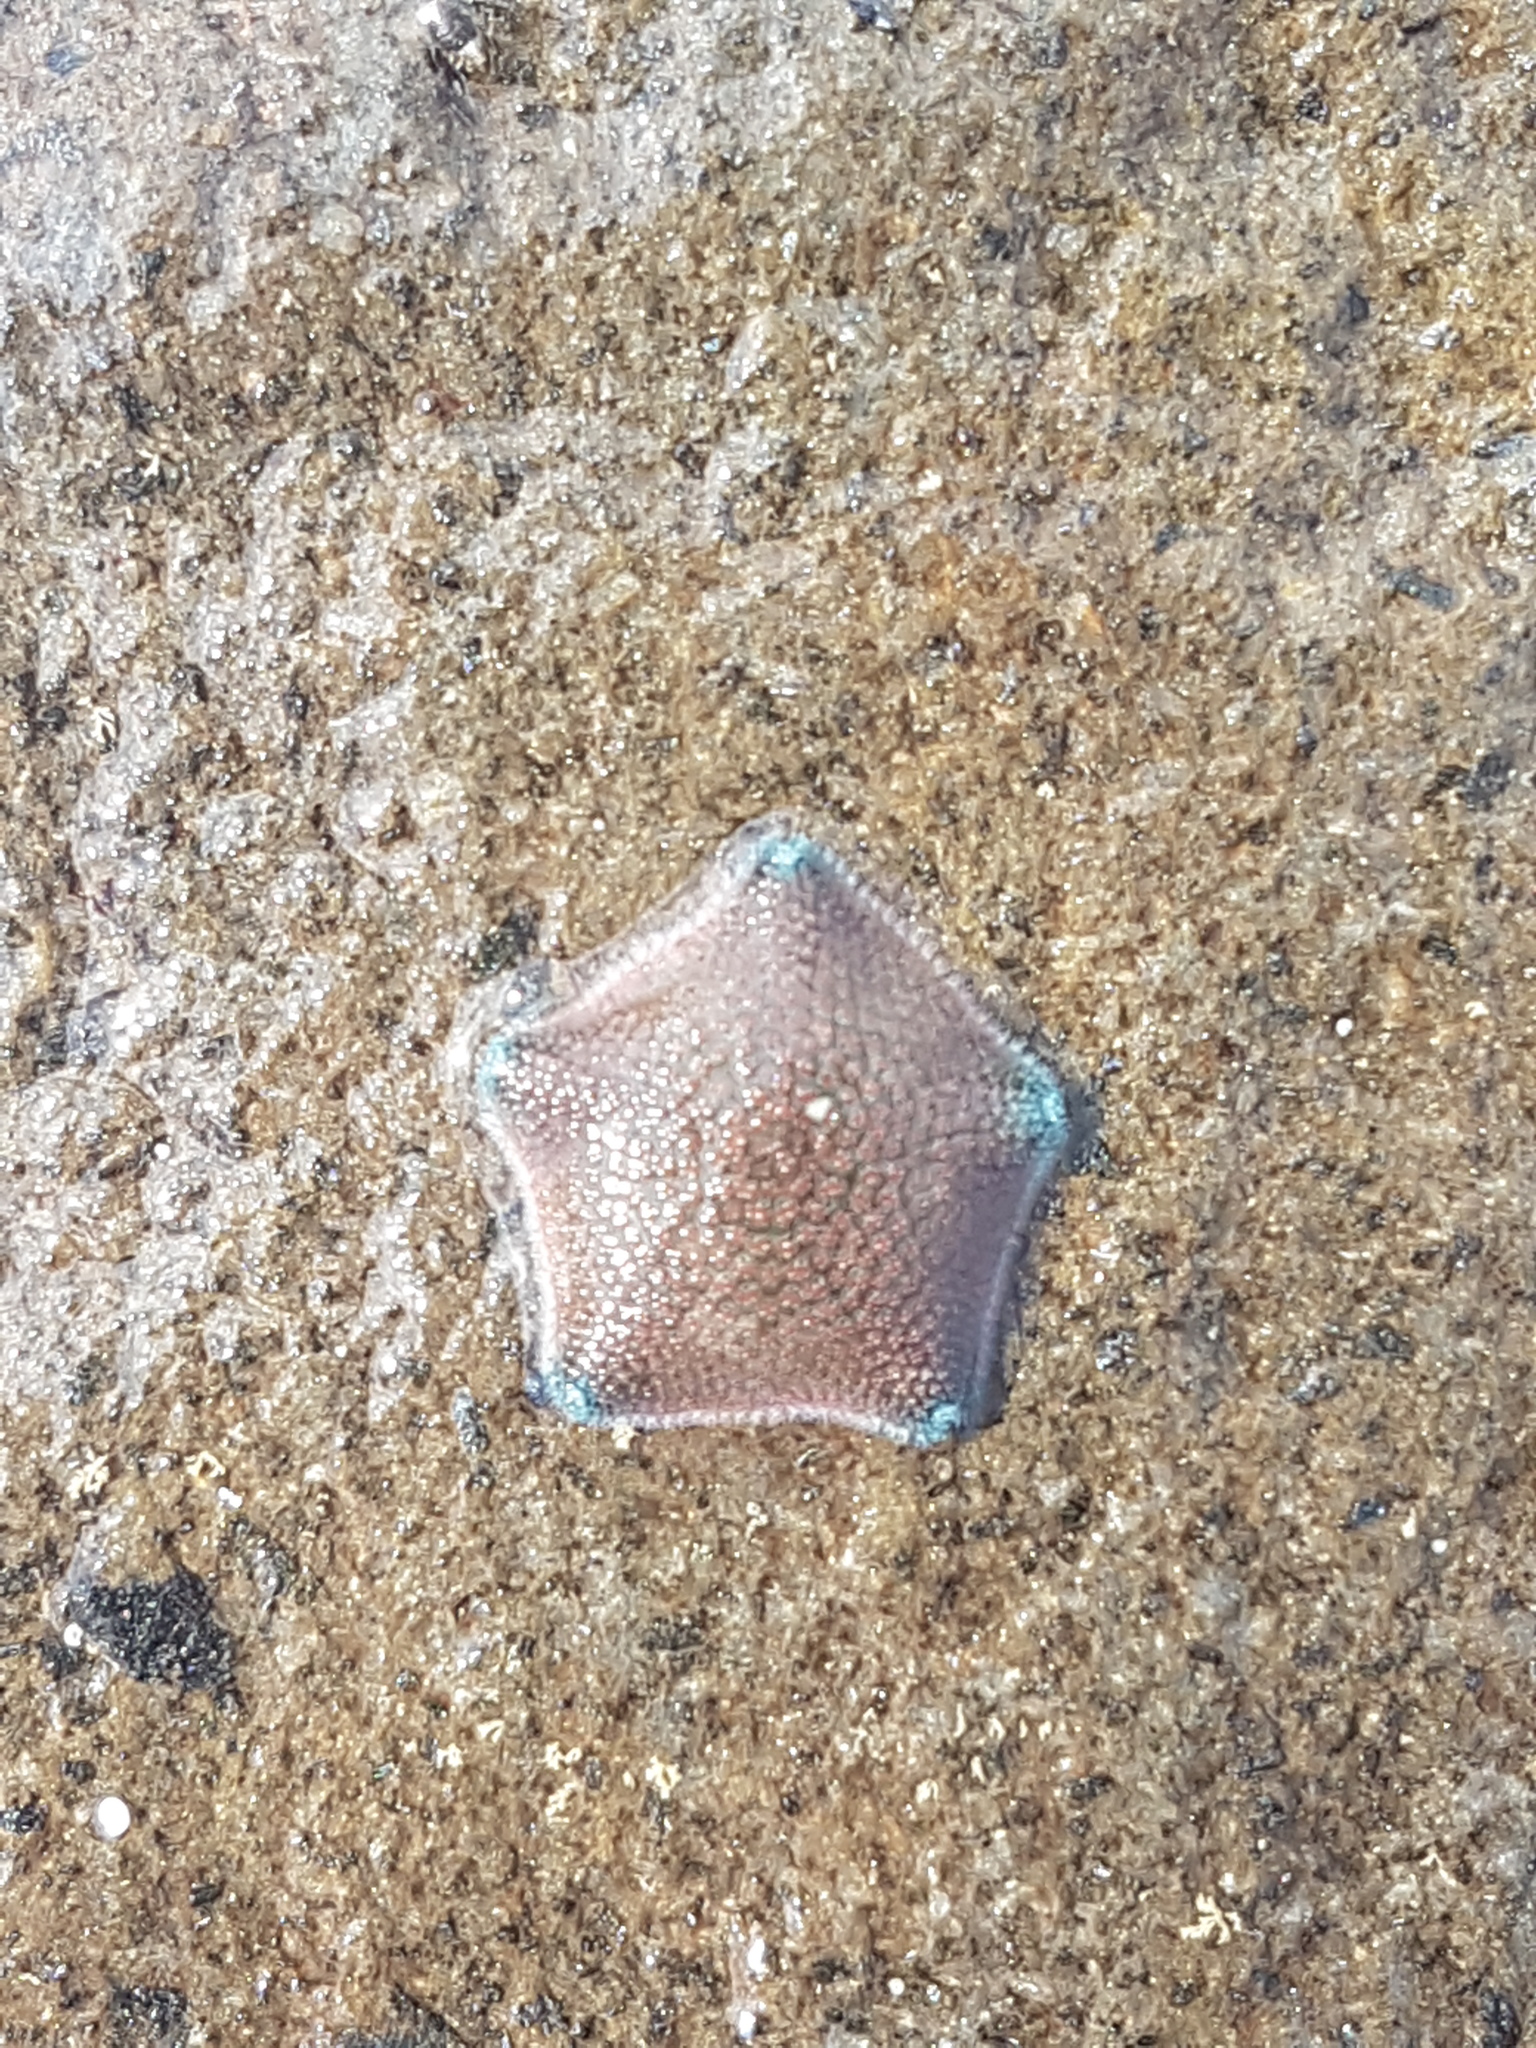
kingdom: Animalia
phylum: Echinodermata
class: Asteroidea
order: Valvatida
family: Asterinidae
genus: Patiriella
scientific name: Patiriella regularis
